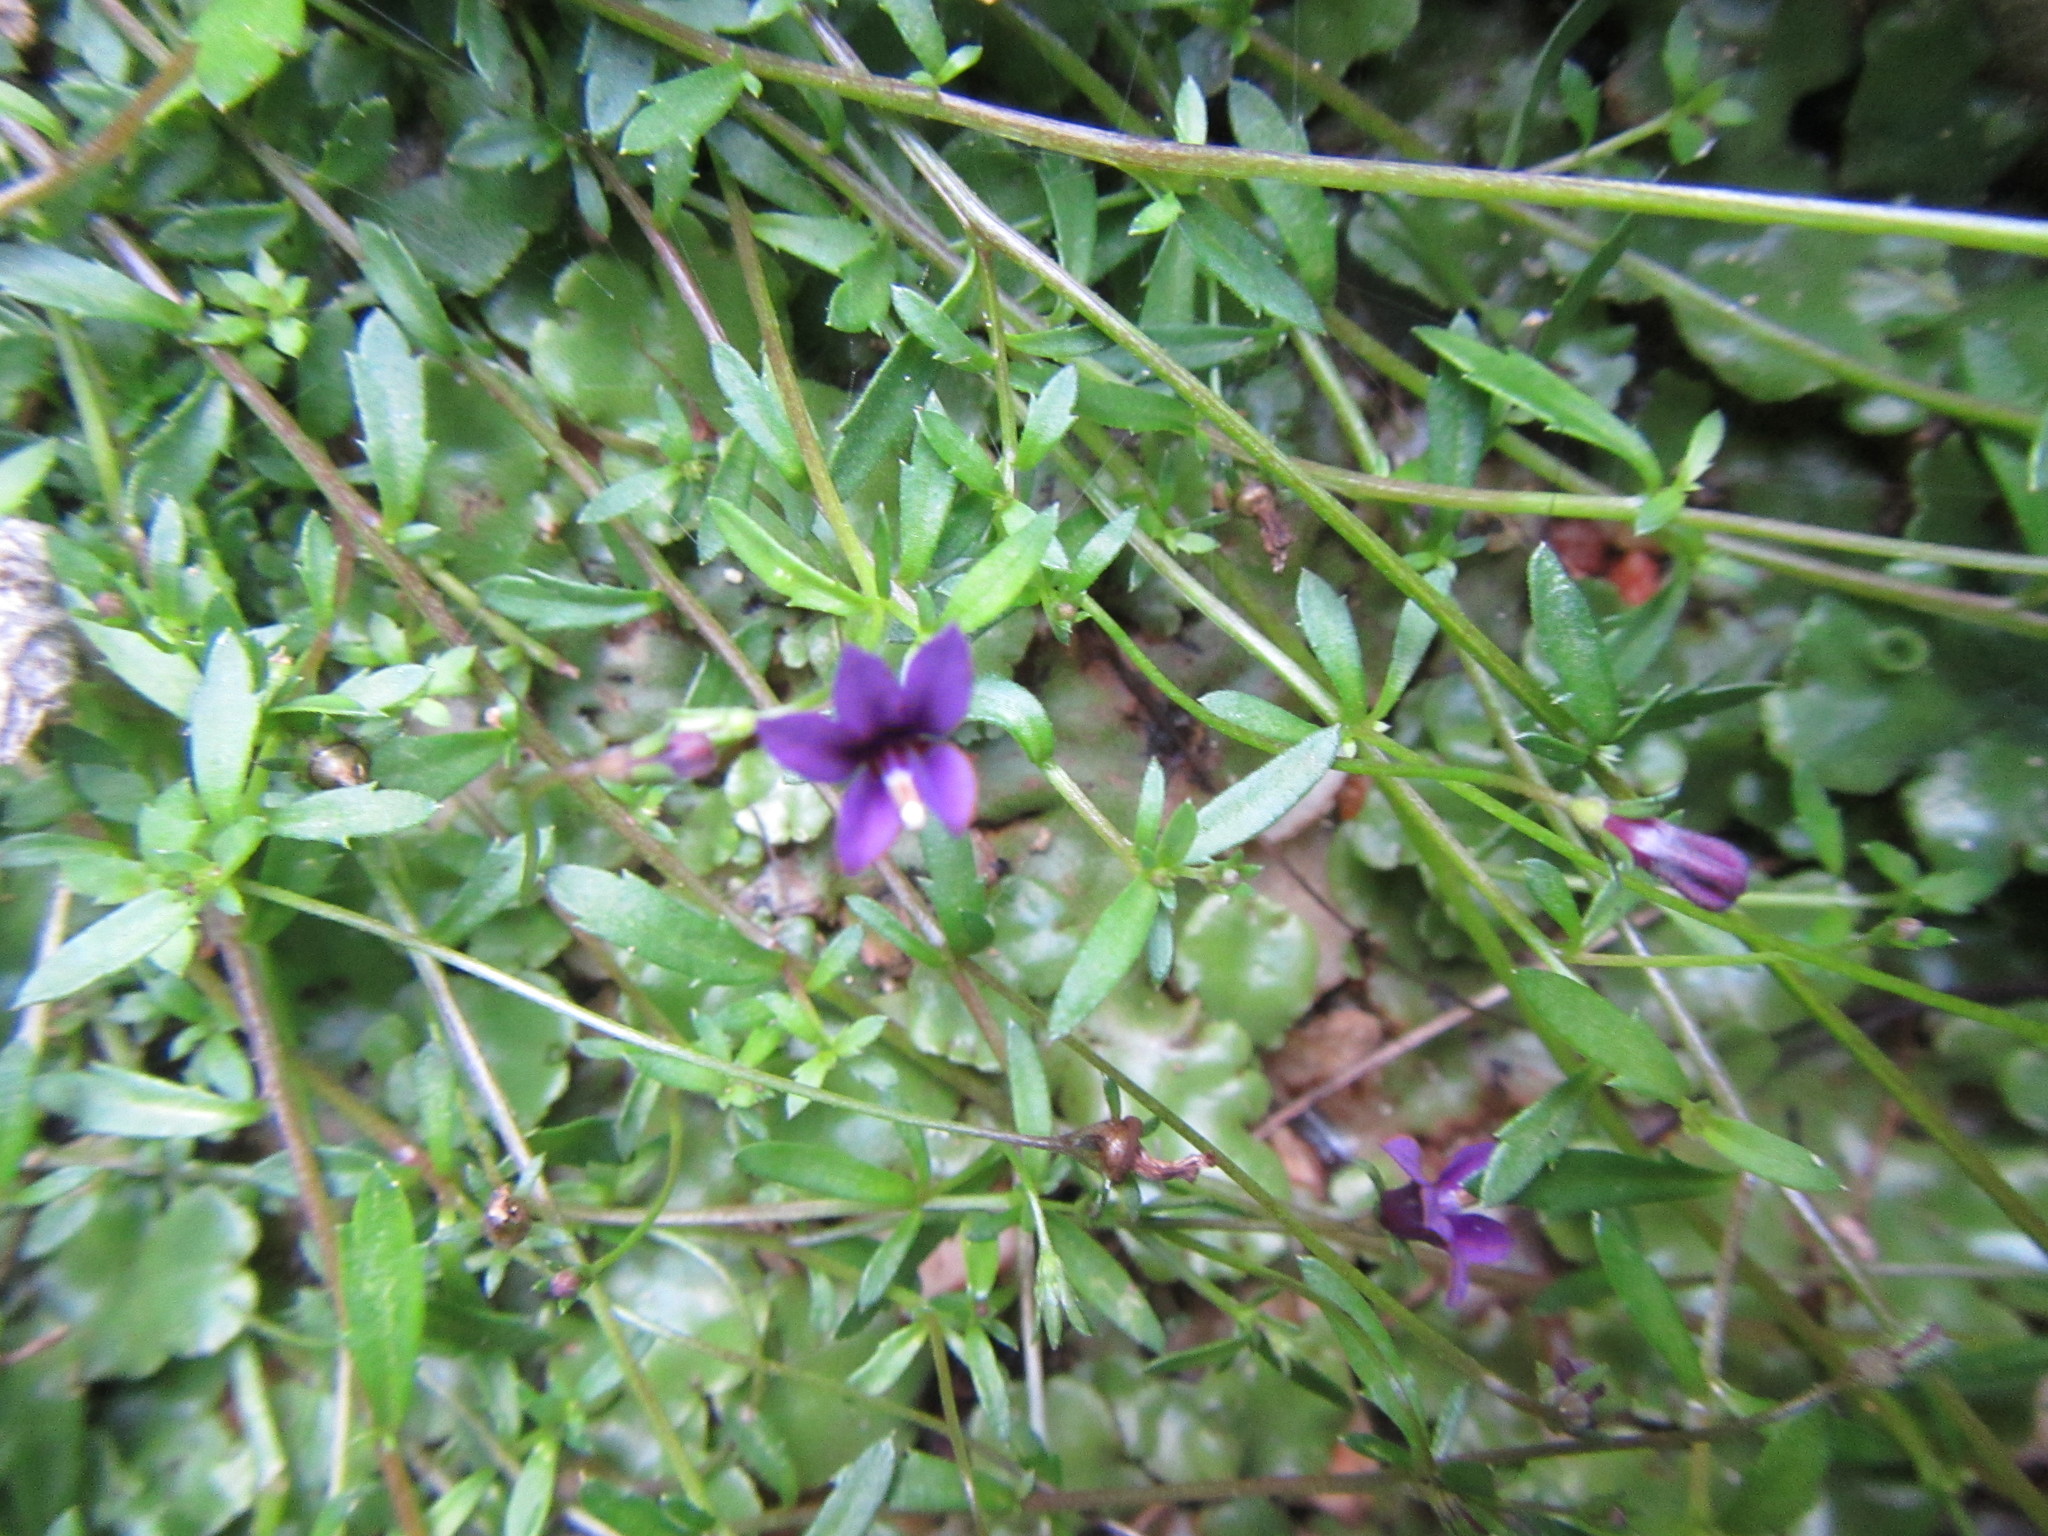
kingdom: Plantae
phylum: Tracheophyta
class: Magnoliopsida
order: Asterales
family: Campanulaceae
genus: Monopsis
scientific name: Monopsis unidentata
